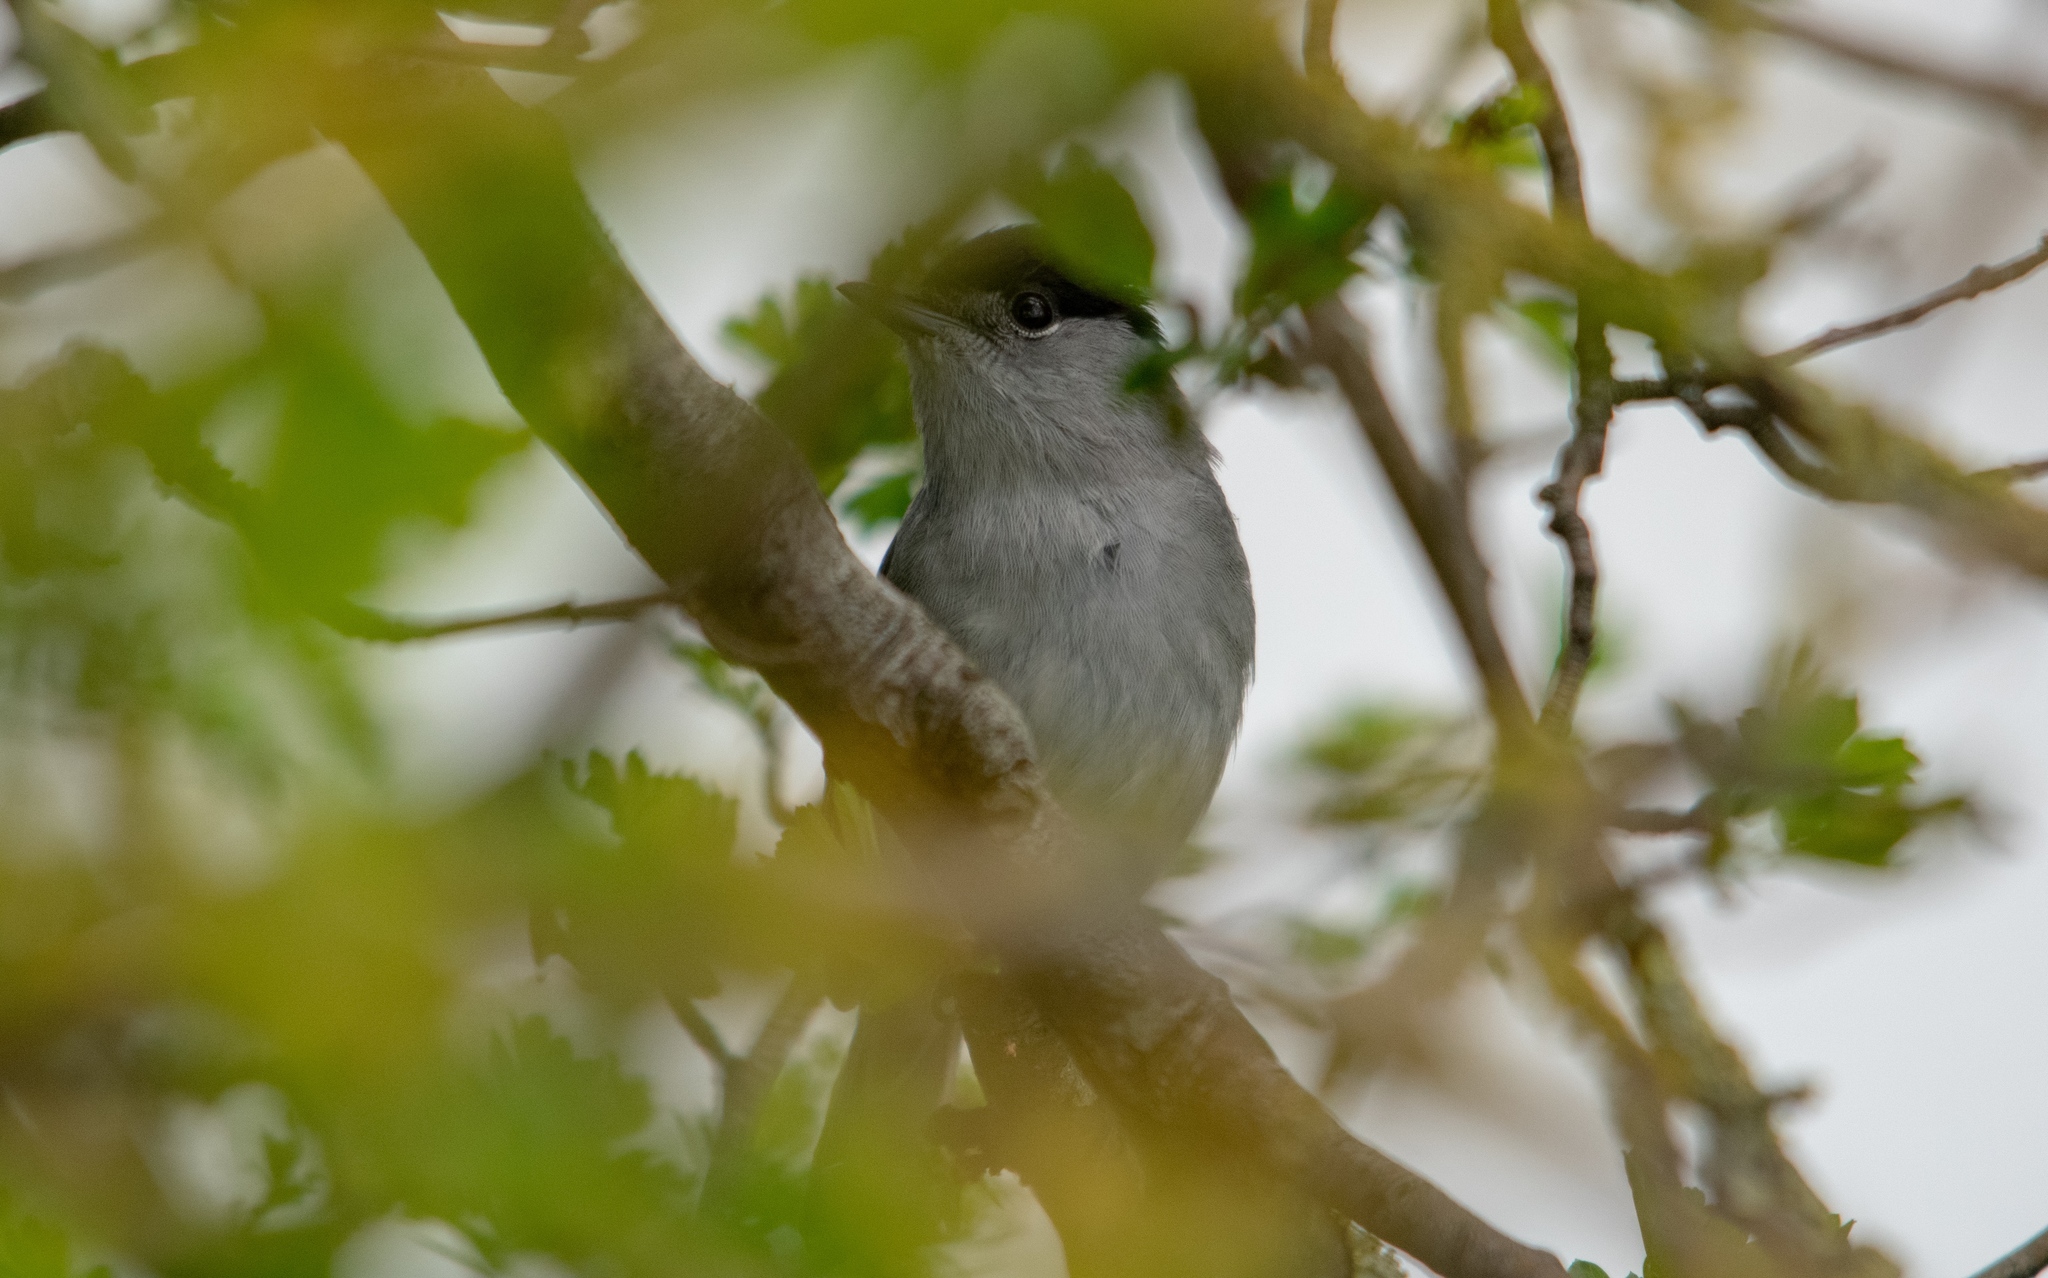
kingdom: Animalia
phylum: Chordata
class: Aves
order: Passeriformes
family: Sylviidae
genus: Sylvia
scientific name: Sylvia atricapilla
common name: Eurasian blackcap
